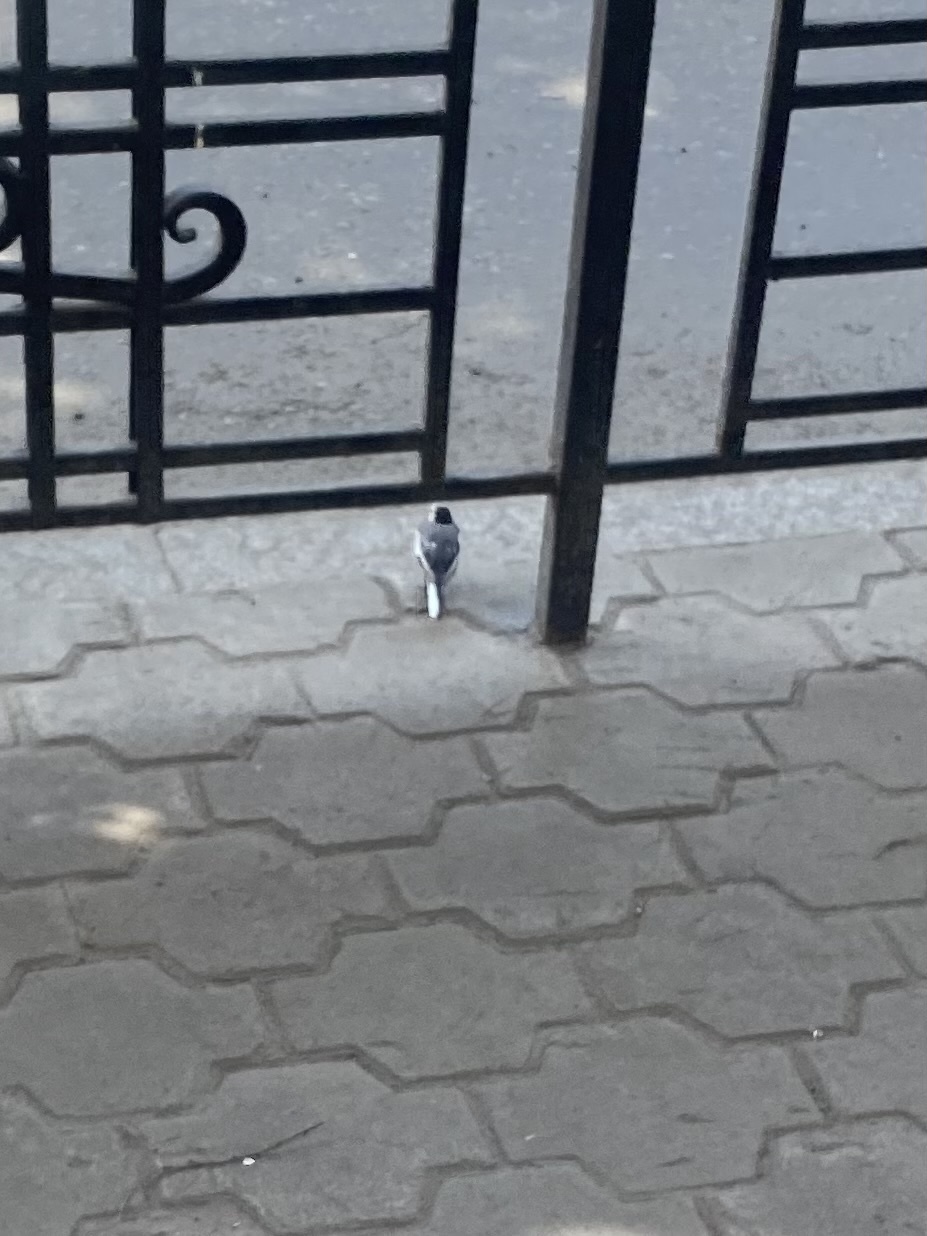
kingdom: Animalia
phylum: Chordata
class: Aves
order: Passeriformes
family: Motacillidae
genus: Motacilla
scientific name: Motacilla alba
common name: White wagtail
